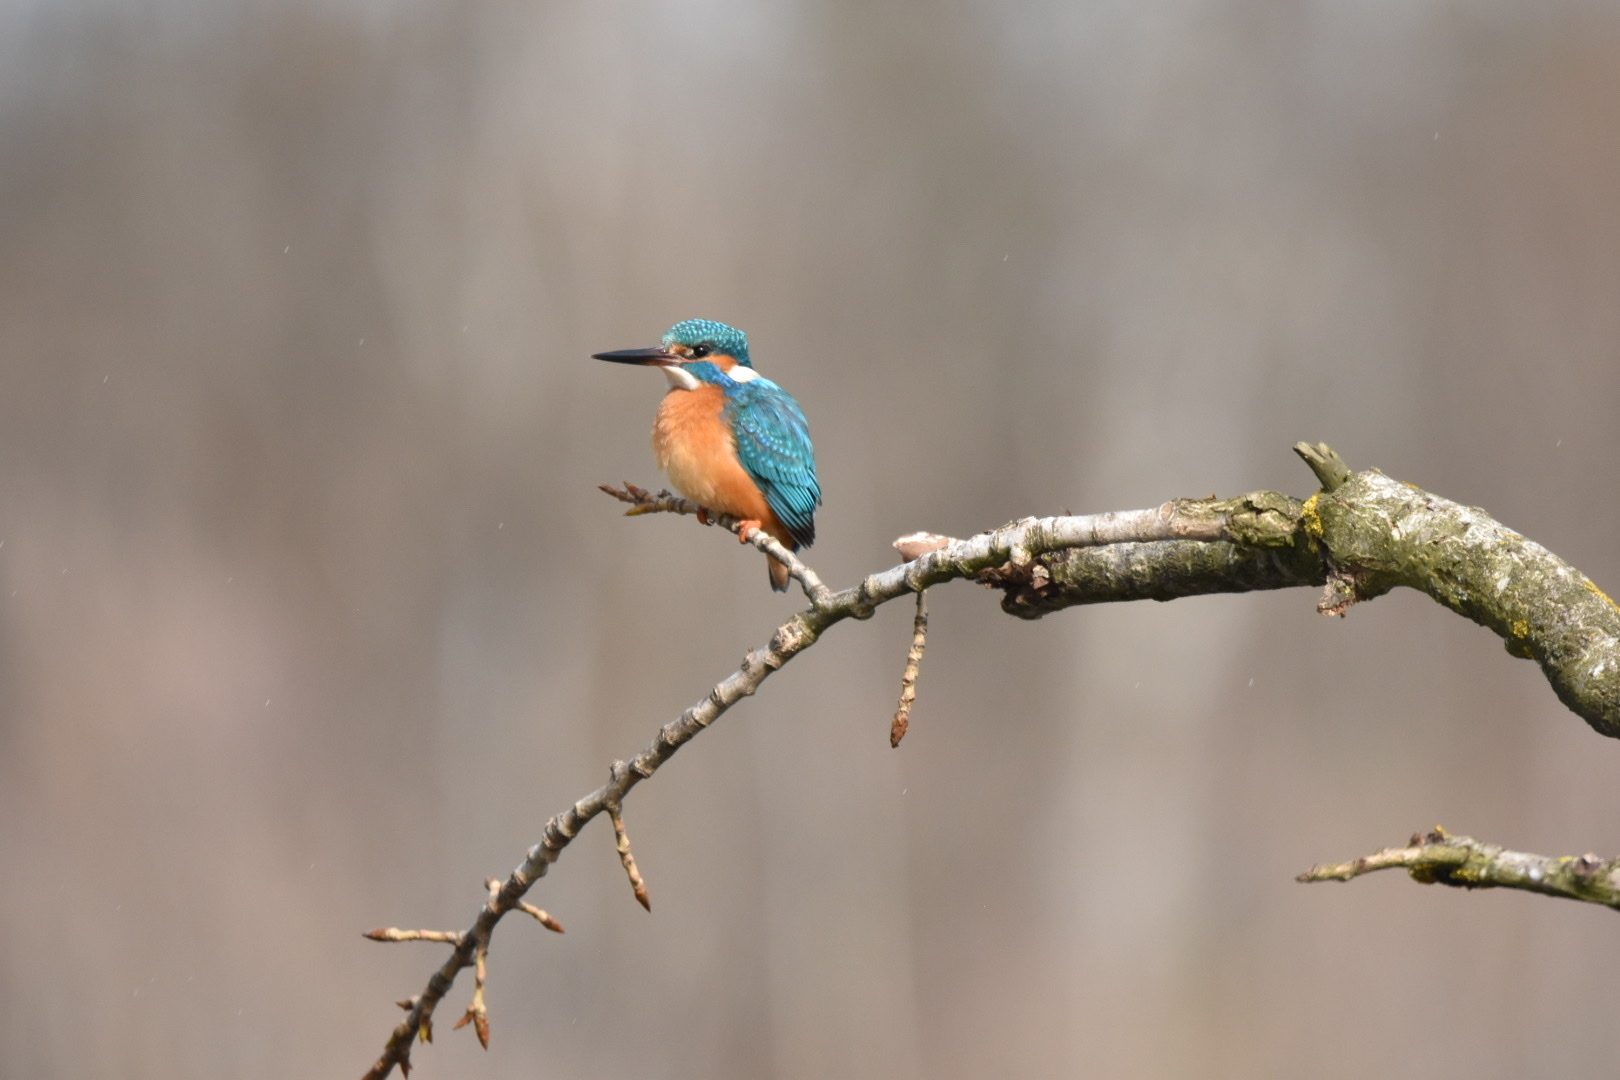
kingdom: Animalia
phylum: Chordata
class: Aves
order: Coraciiformes
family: Alcedinidae
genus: Alcedo
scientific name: Alcedo atthis
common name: Common kingfisher
